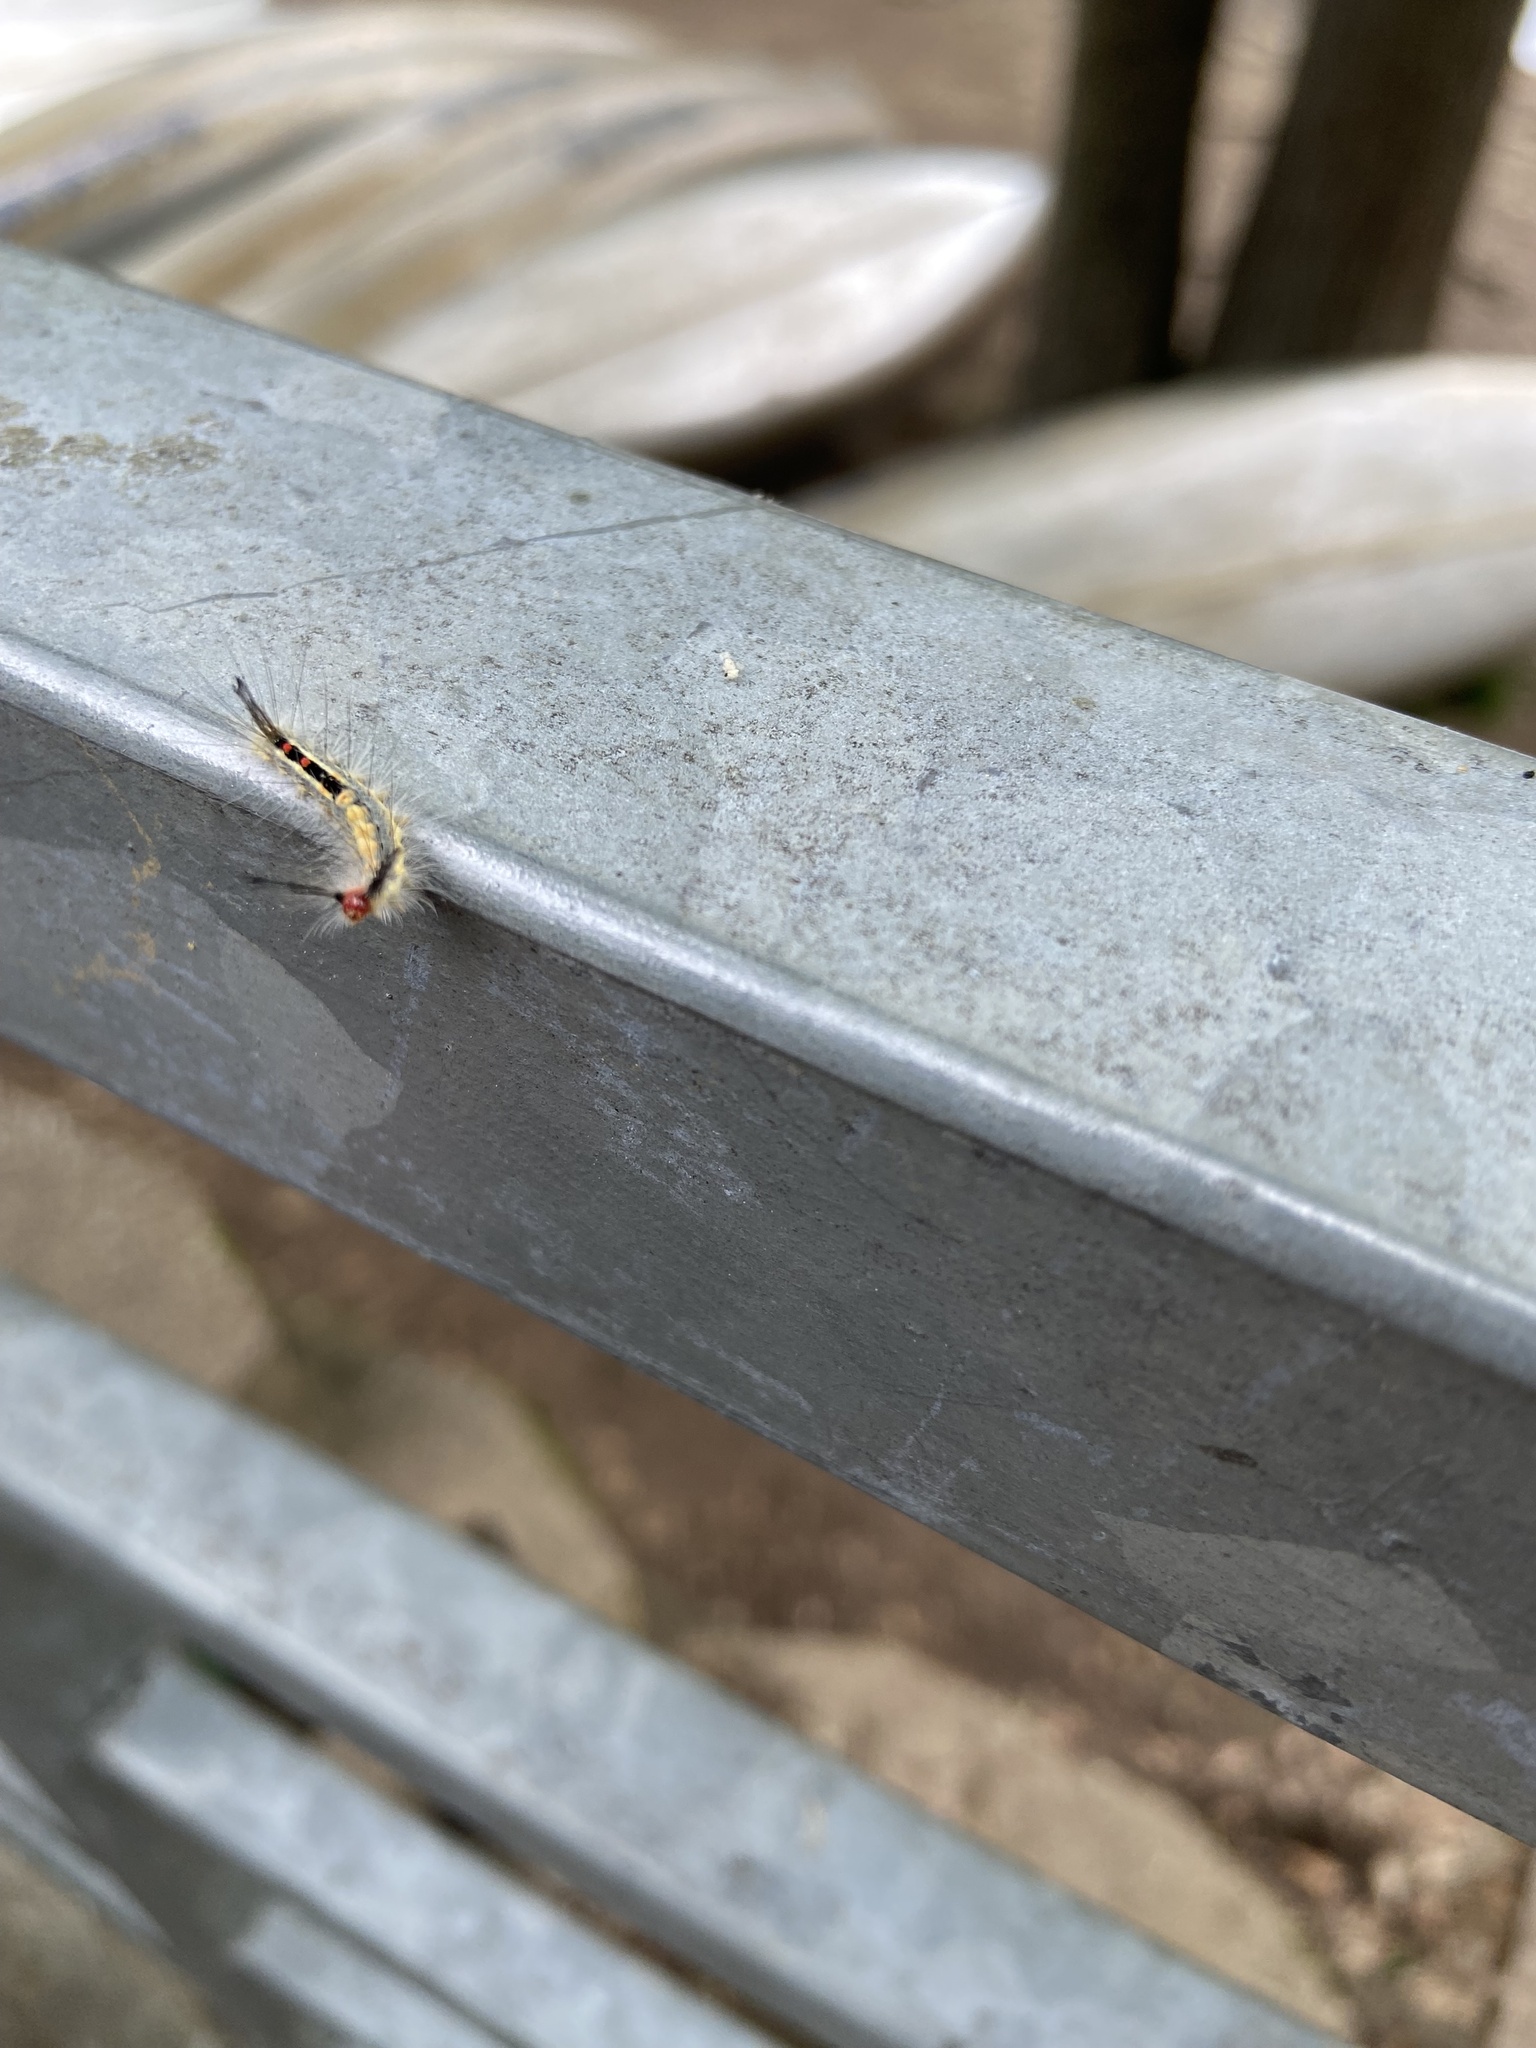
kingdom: Animalia
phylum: Arthropoda
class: Insecta
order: Lepidoptera
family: Erebidae
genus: Orgyia
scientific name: Orgyia leucostigma
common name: White-marked tussock moth
